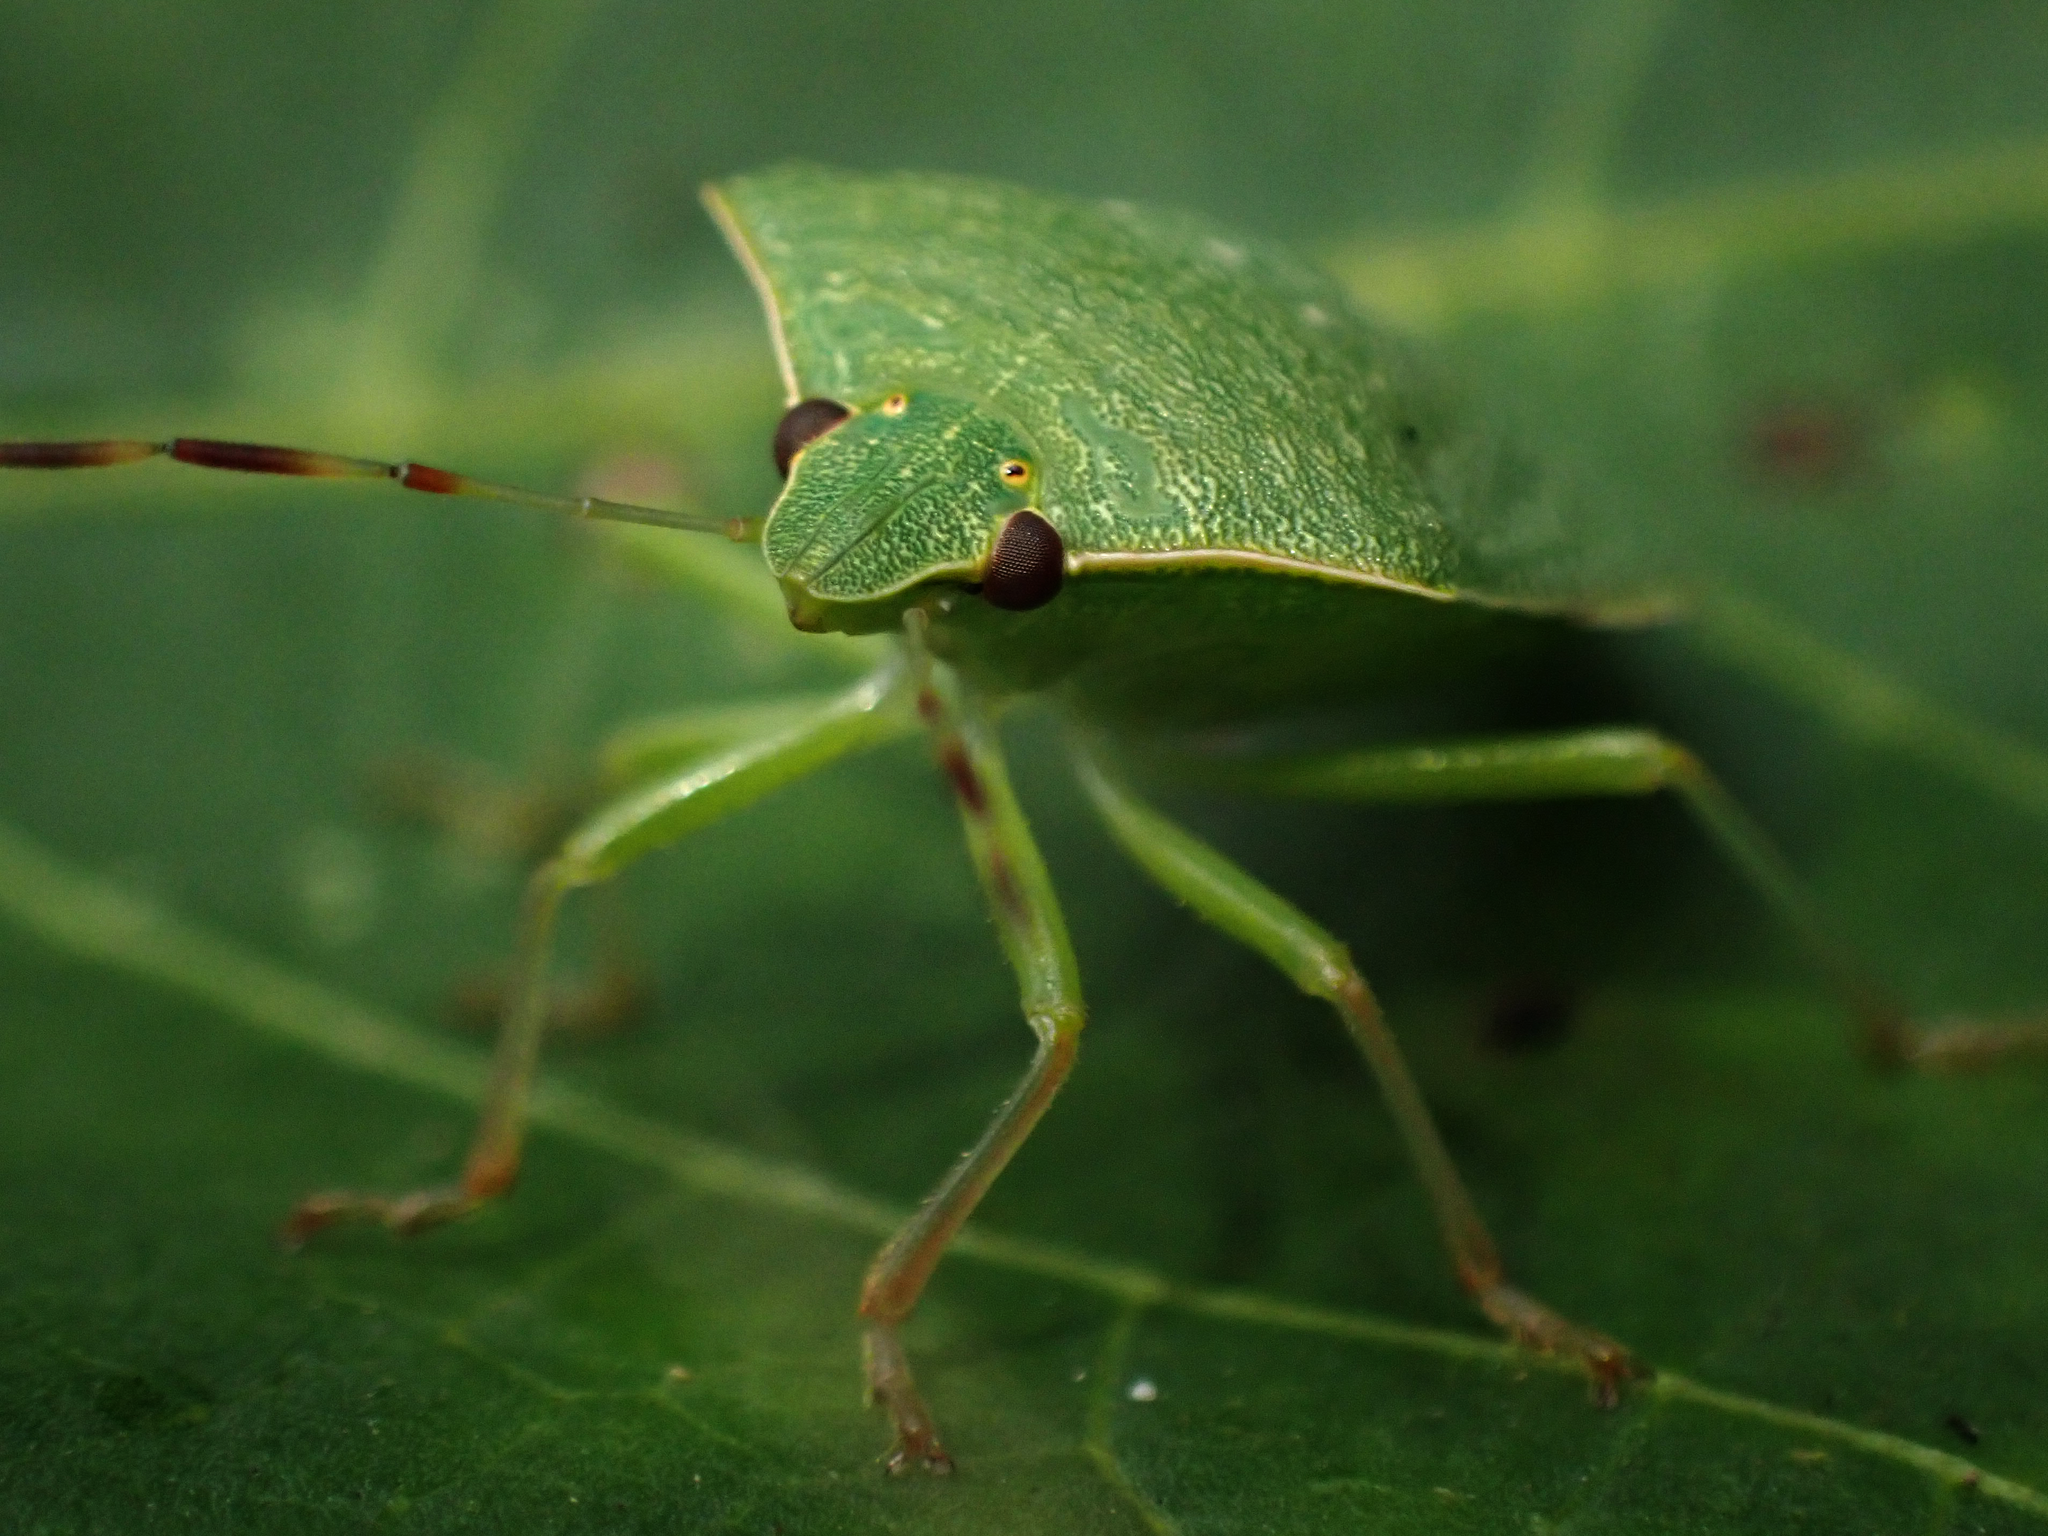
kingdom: Animalia
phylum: Arthropoda
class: Insecta
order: Hemiptera
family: Pentatomidae
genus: Nezara
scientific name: Nezara viridula
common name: Southern green stink bug
